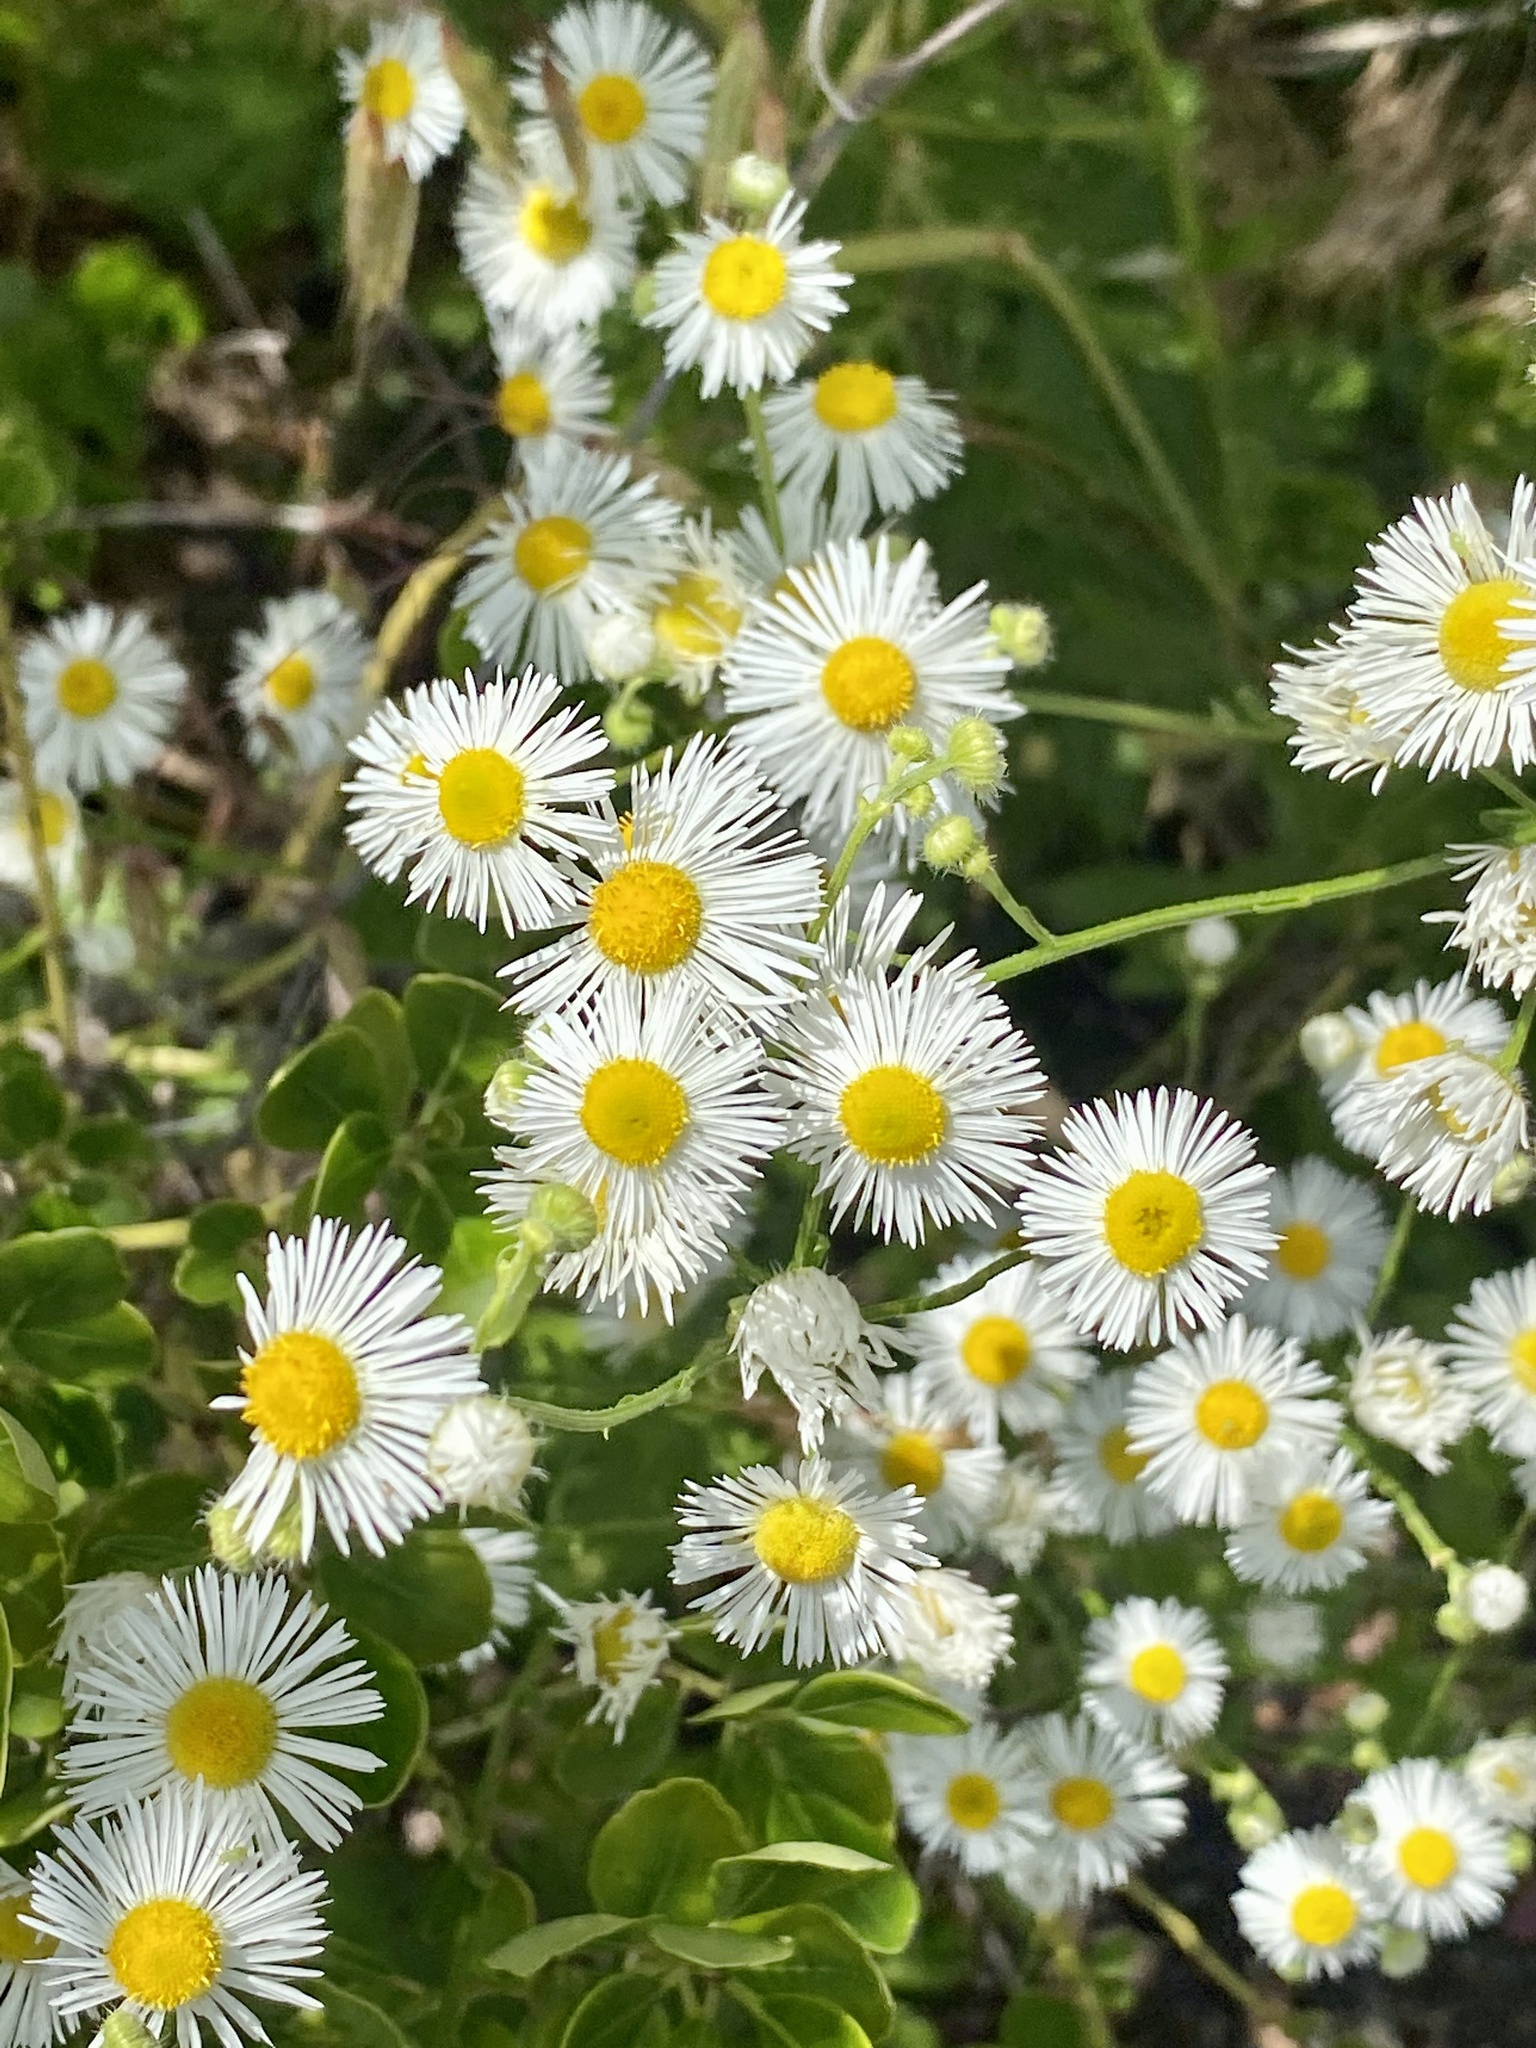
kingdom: Plantae
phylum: Tracheophyta
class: Magnoliopsida
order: Asterales
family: Asteraceae
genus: Erigeron
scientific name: Erigeron annuus
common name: Tall fleabane
